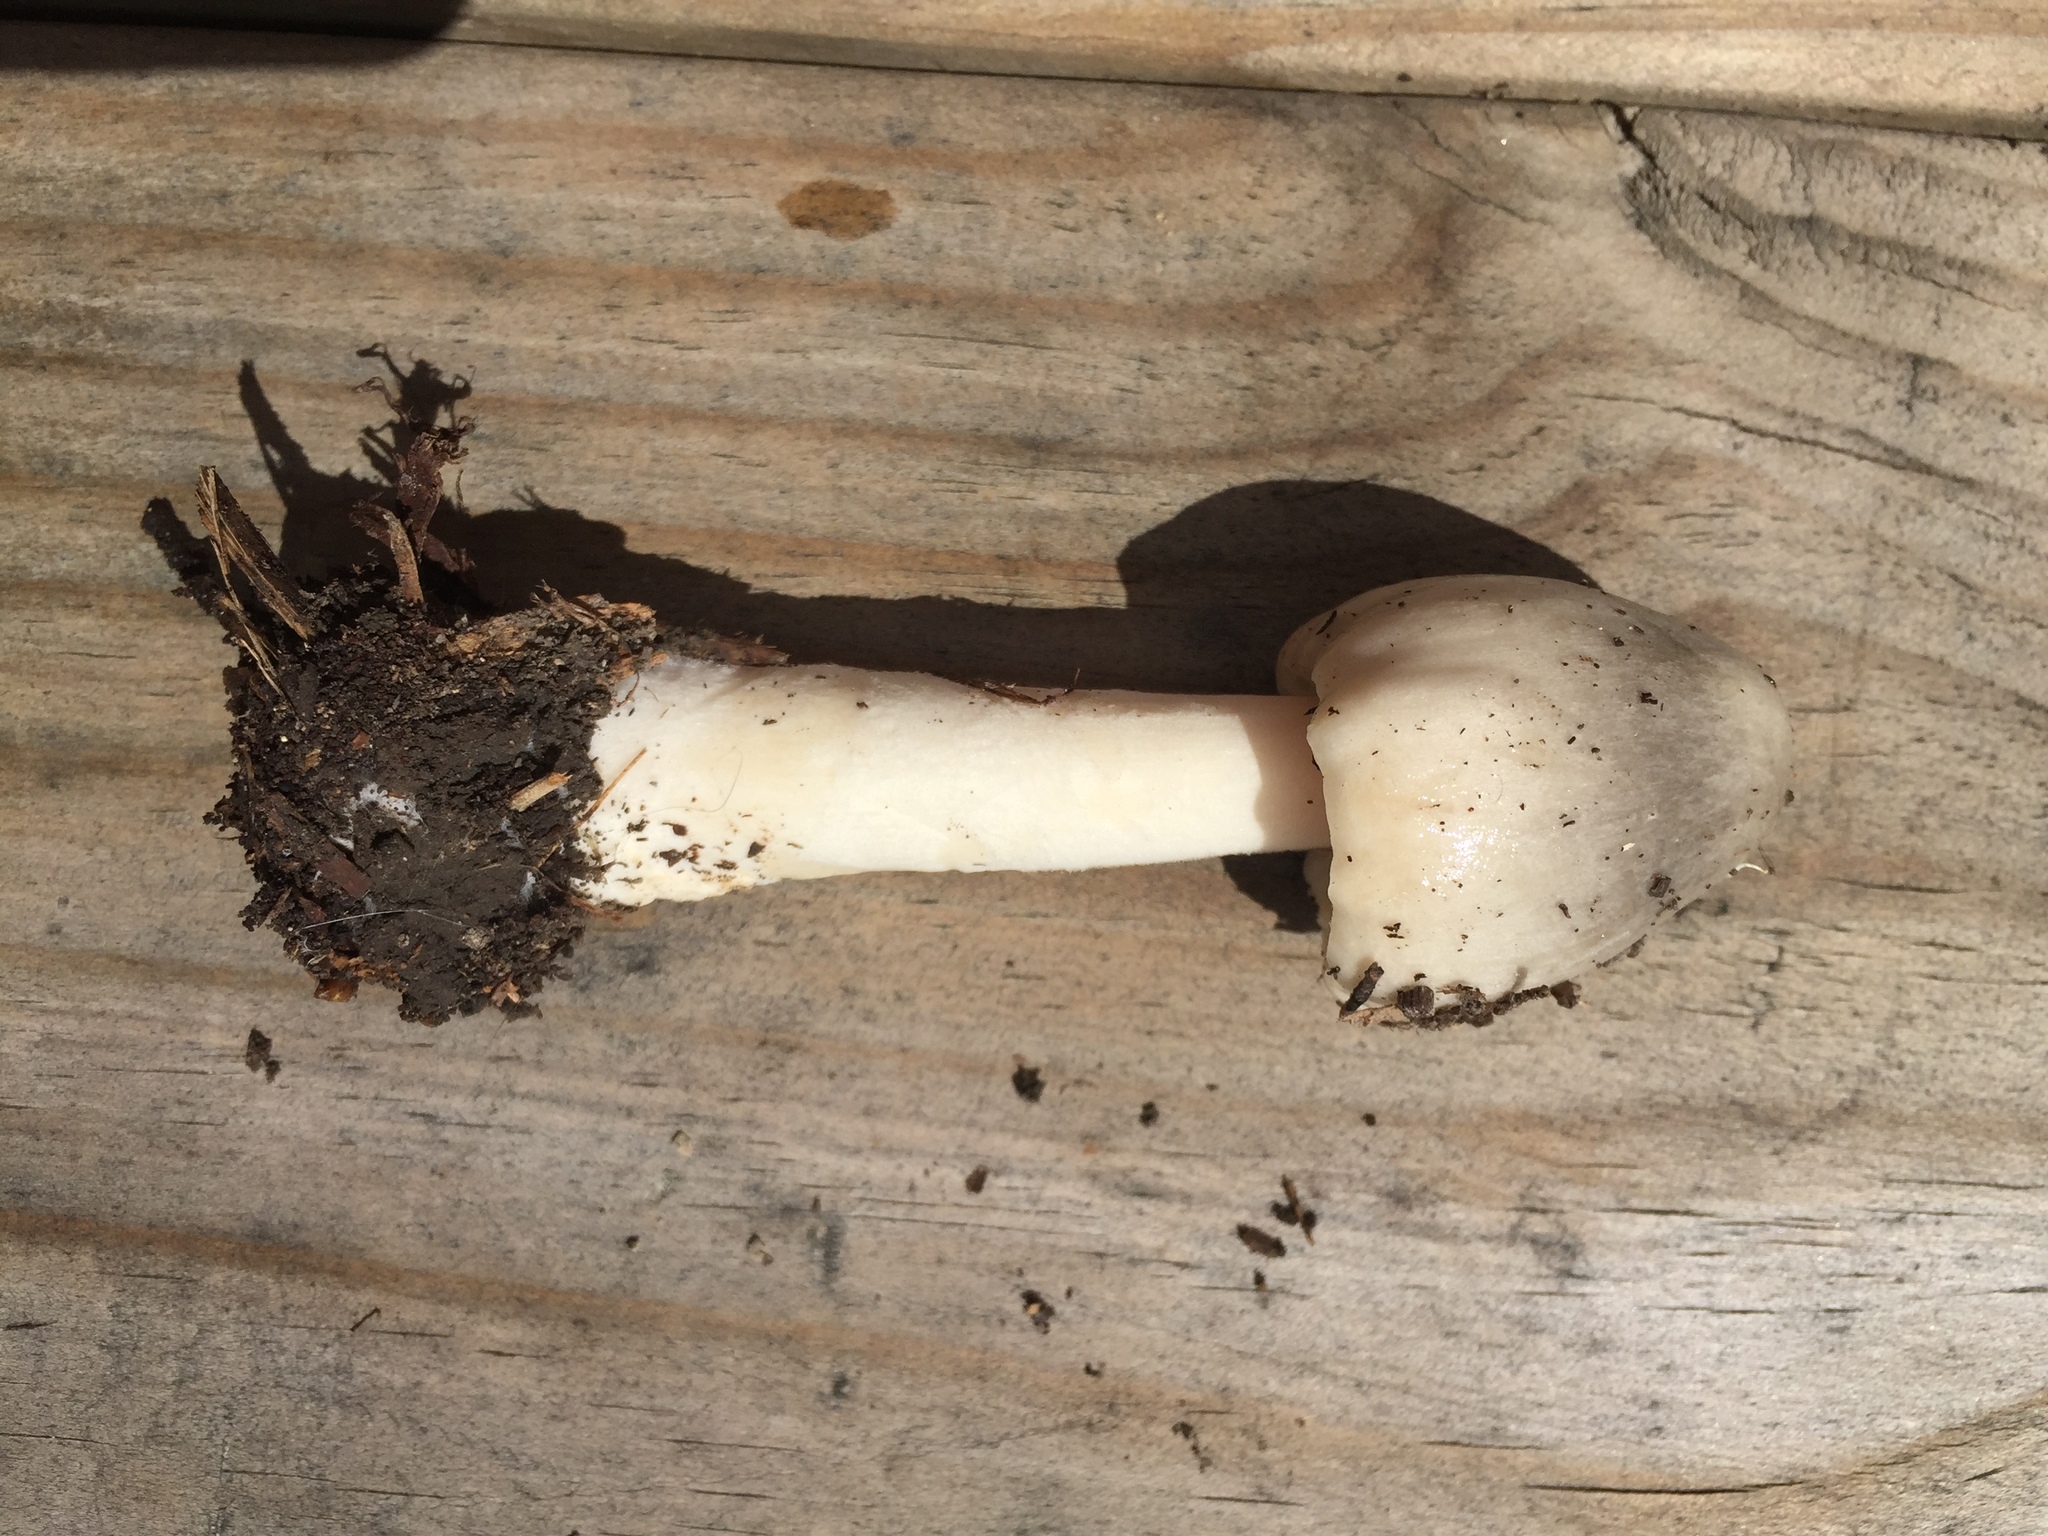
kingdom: Fungi
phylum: Basidiomycota
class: Agaricomycetes
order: Agaricales
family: Pluteaceae
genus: Volvopluteus
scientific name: Volvopluteus gloiocephalus
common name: Stubble rosegill
